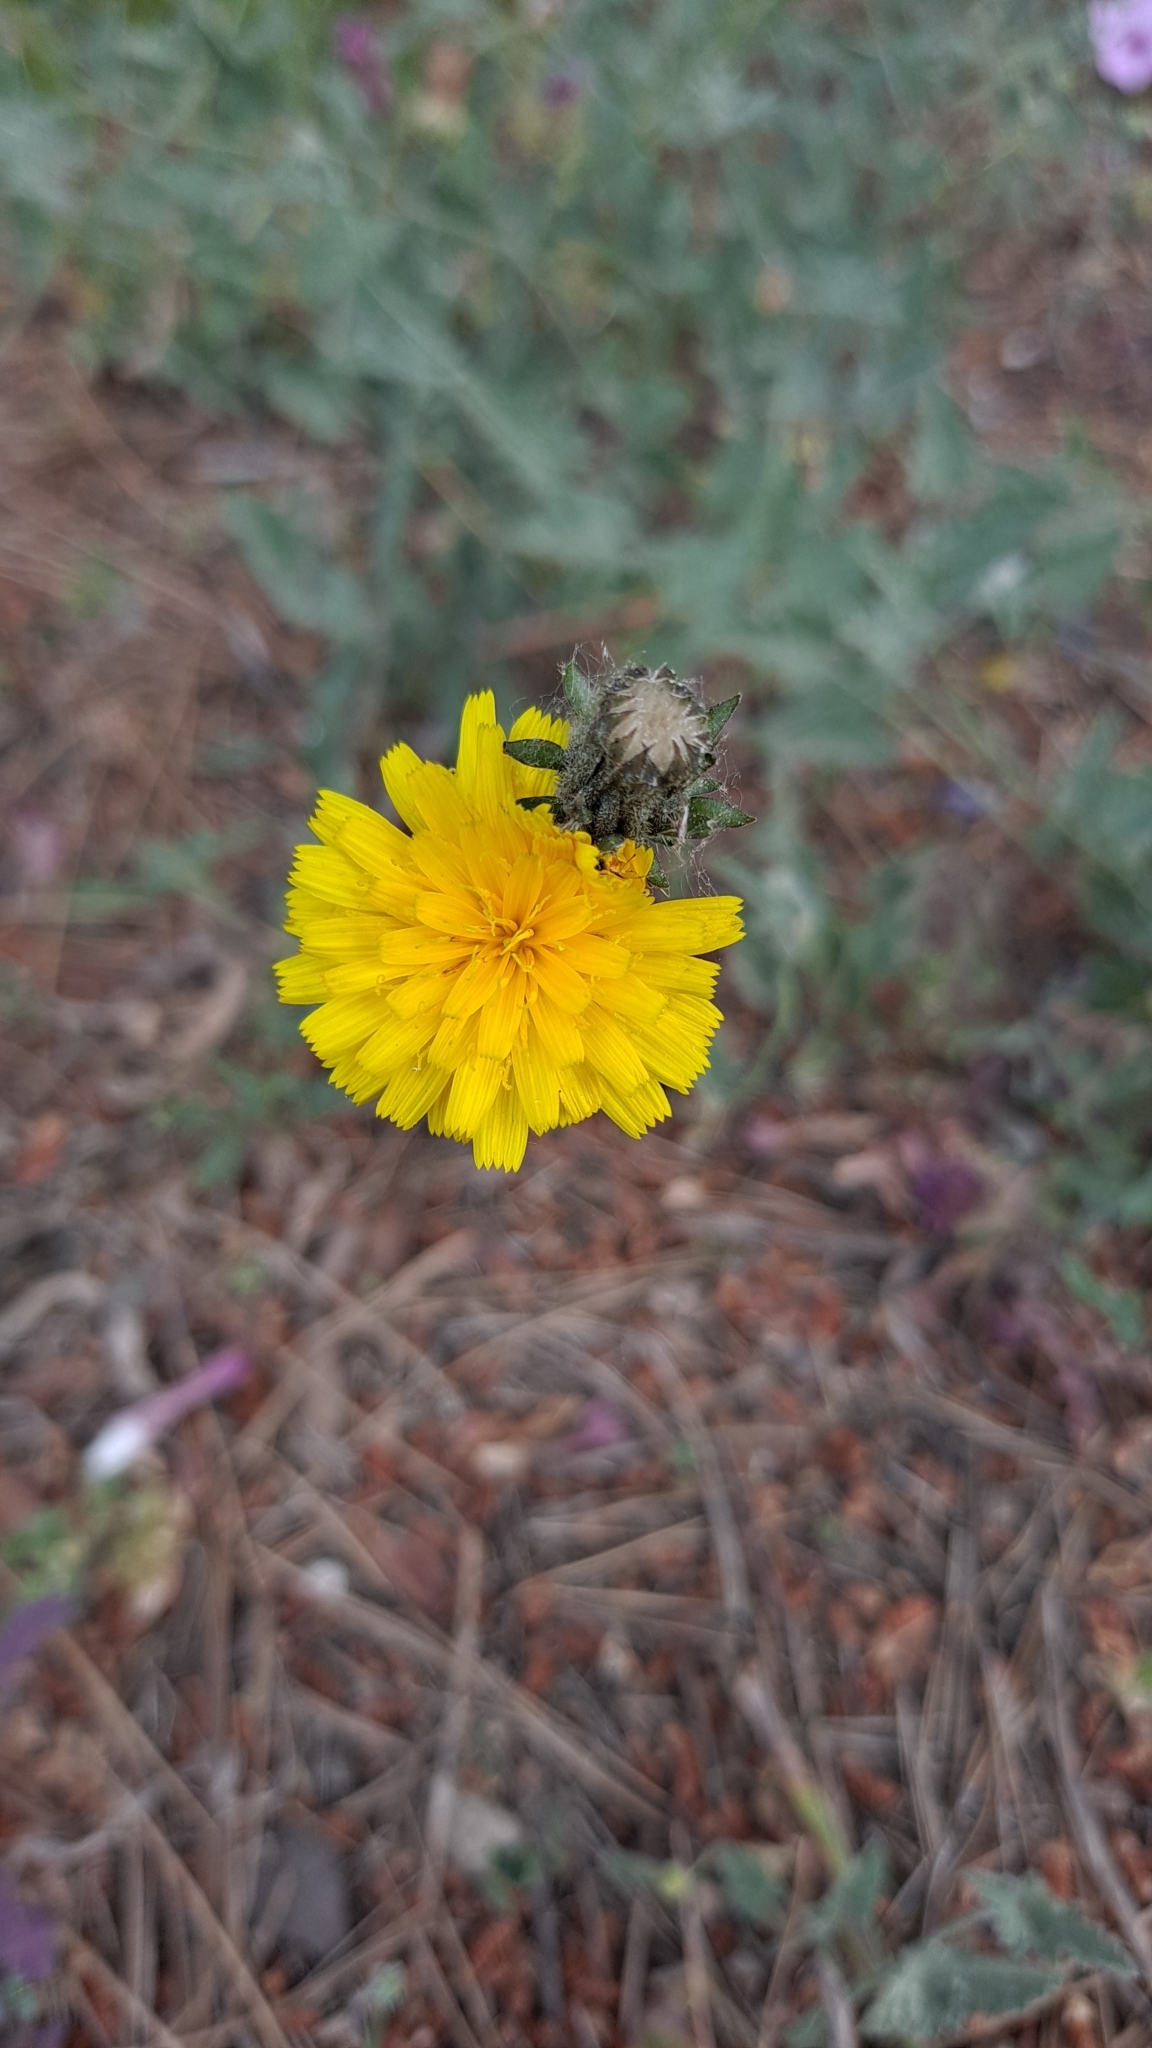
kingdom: Plantae
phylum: Tracheophyta
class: Magnoliopsida
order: Asterales
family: Asteraceae
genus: Picris
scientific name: Picris hieracioides
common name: Hawkweed oxtongue
